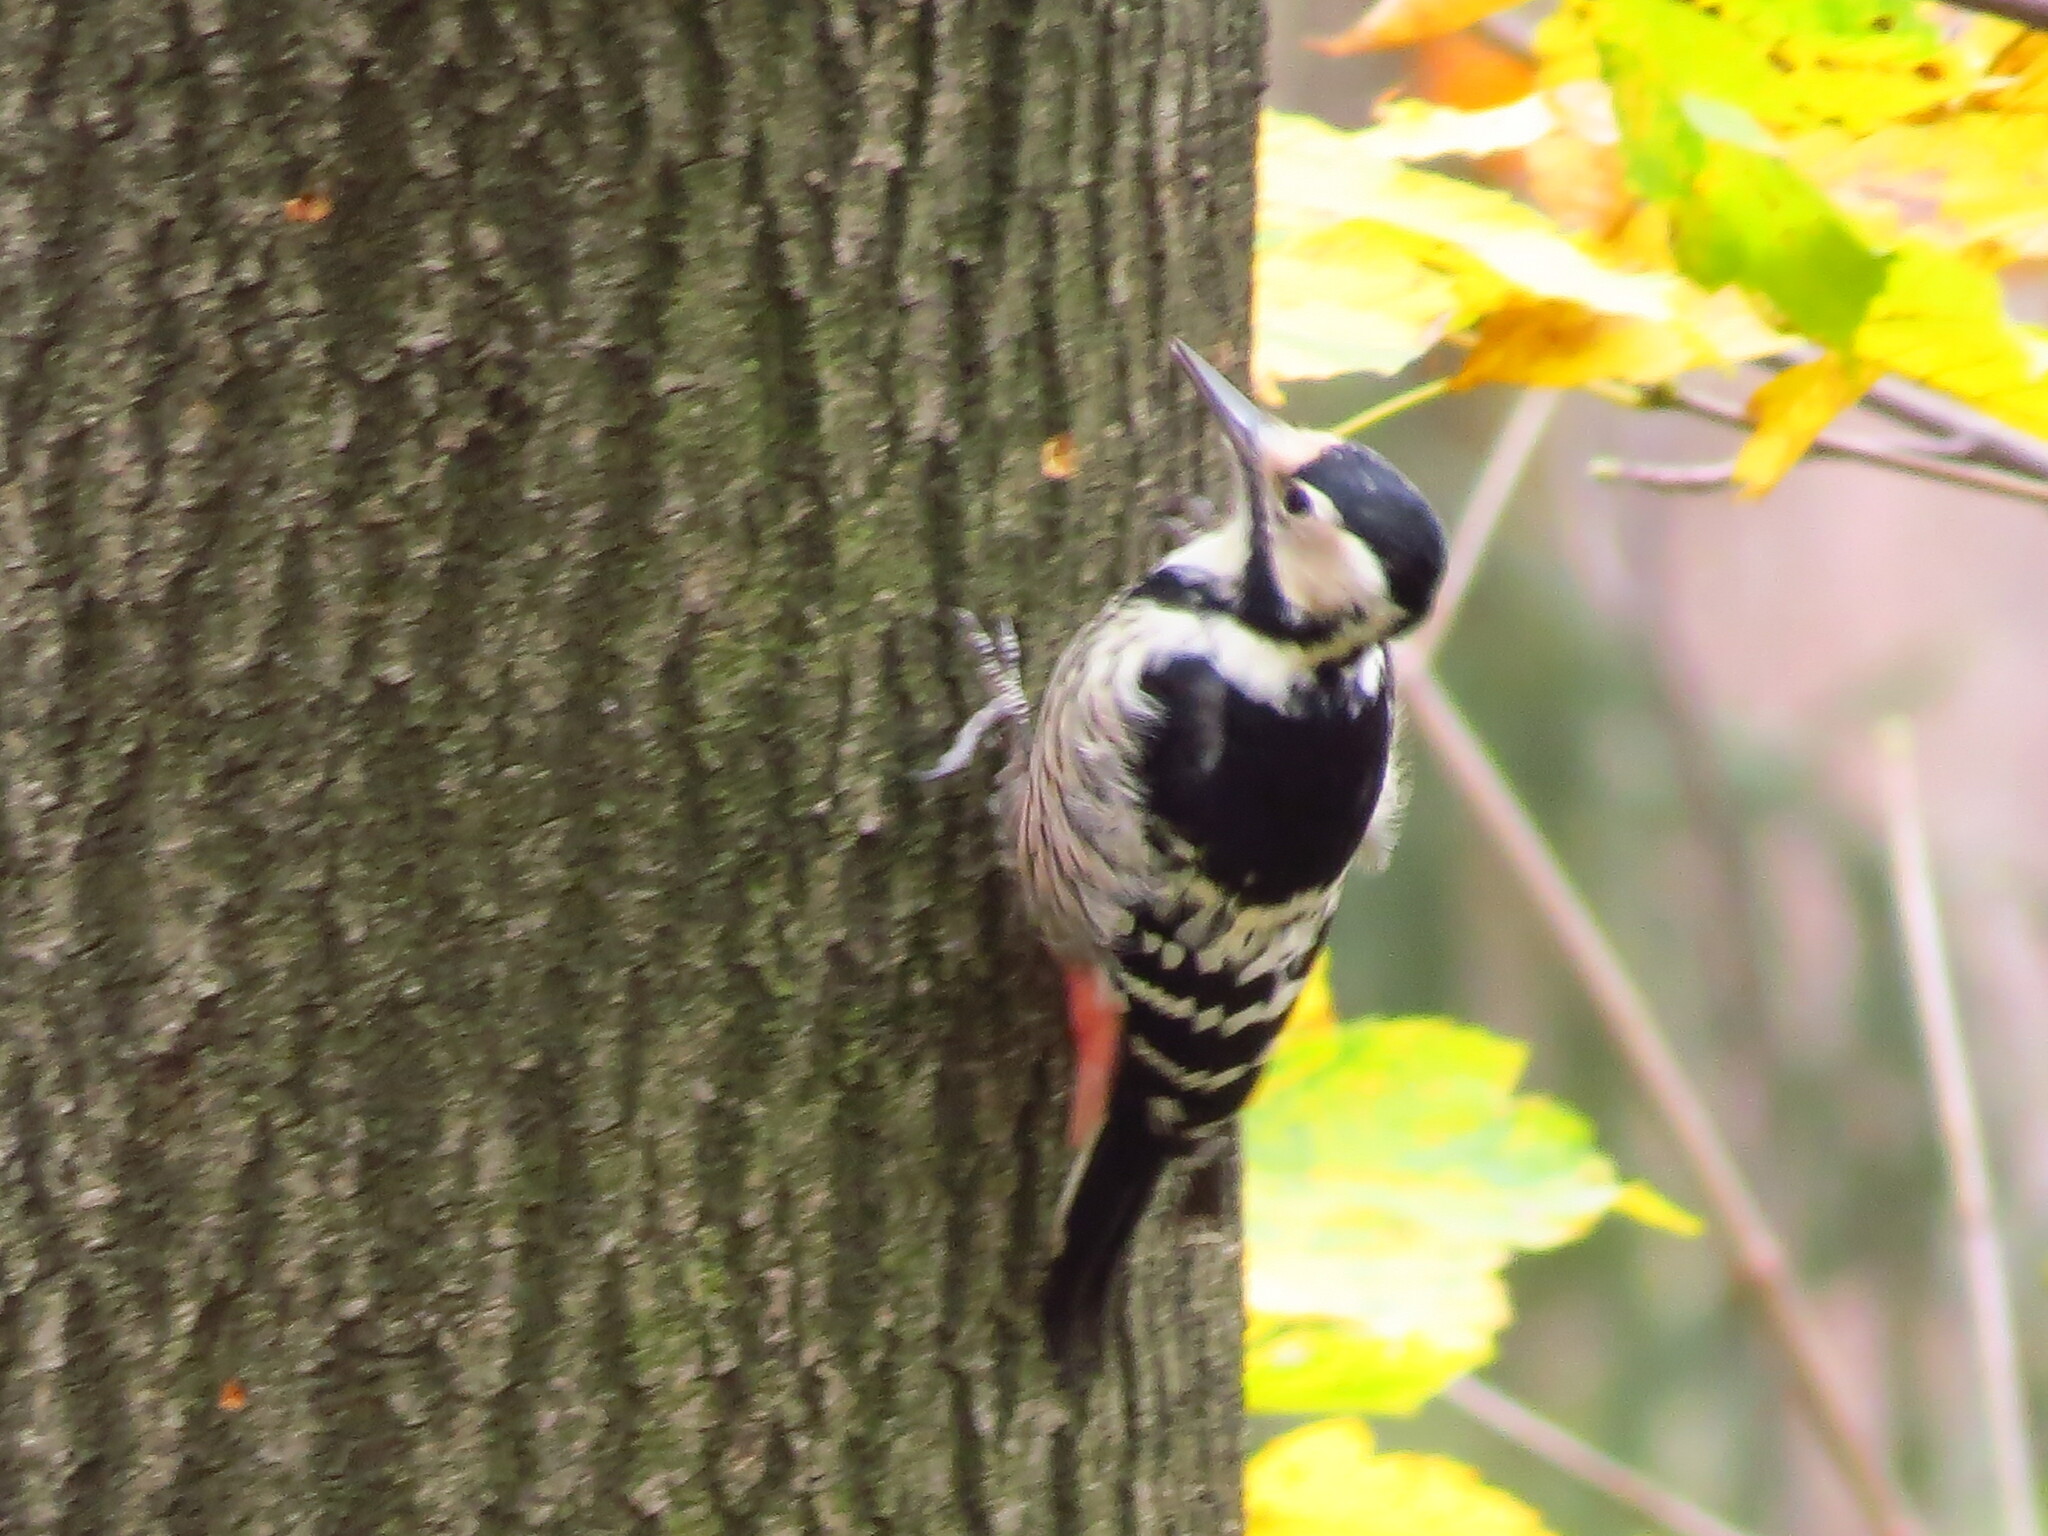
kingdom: Animalia
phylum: Chordata
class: Aves
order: Piciformes
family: Picidae
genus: Dendrocopos
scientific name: Dendrocopos leucotos
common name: White-backed woodpecker
